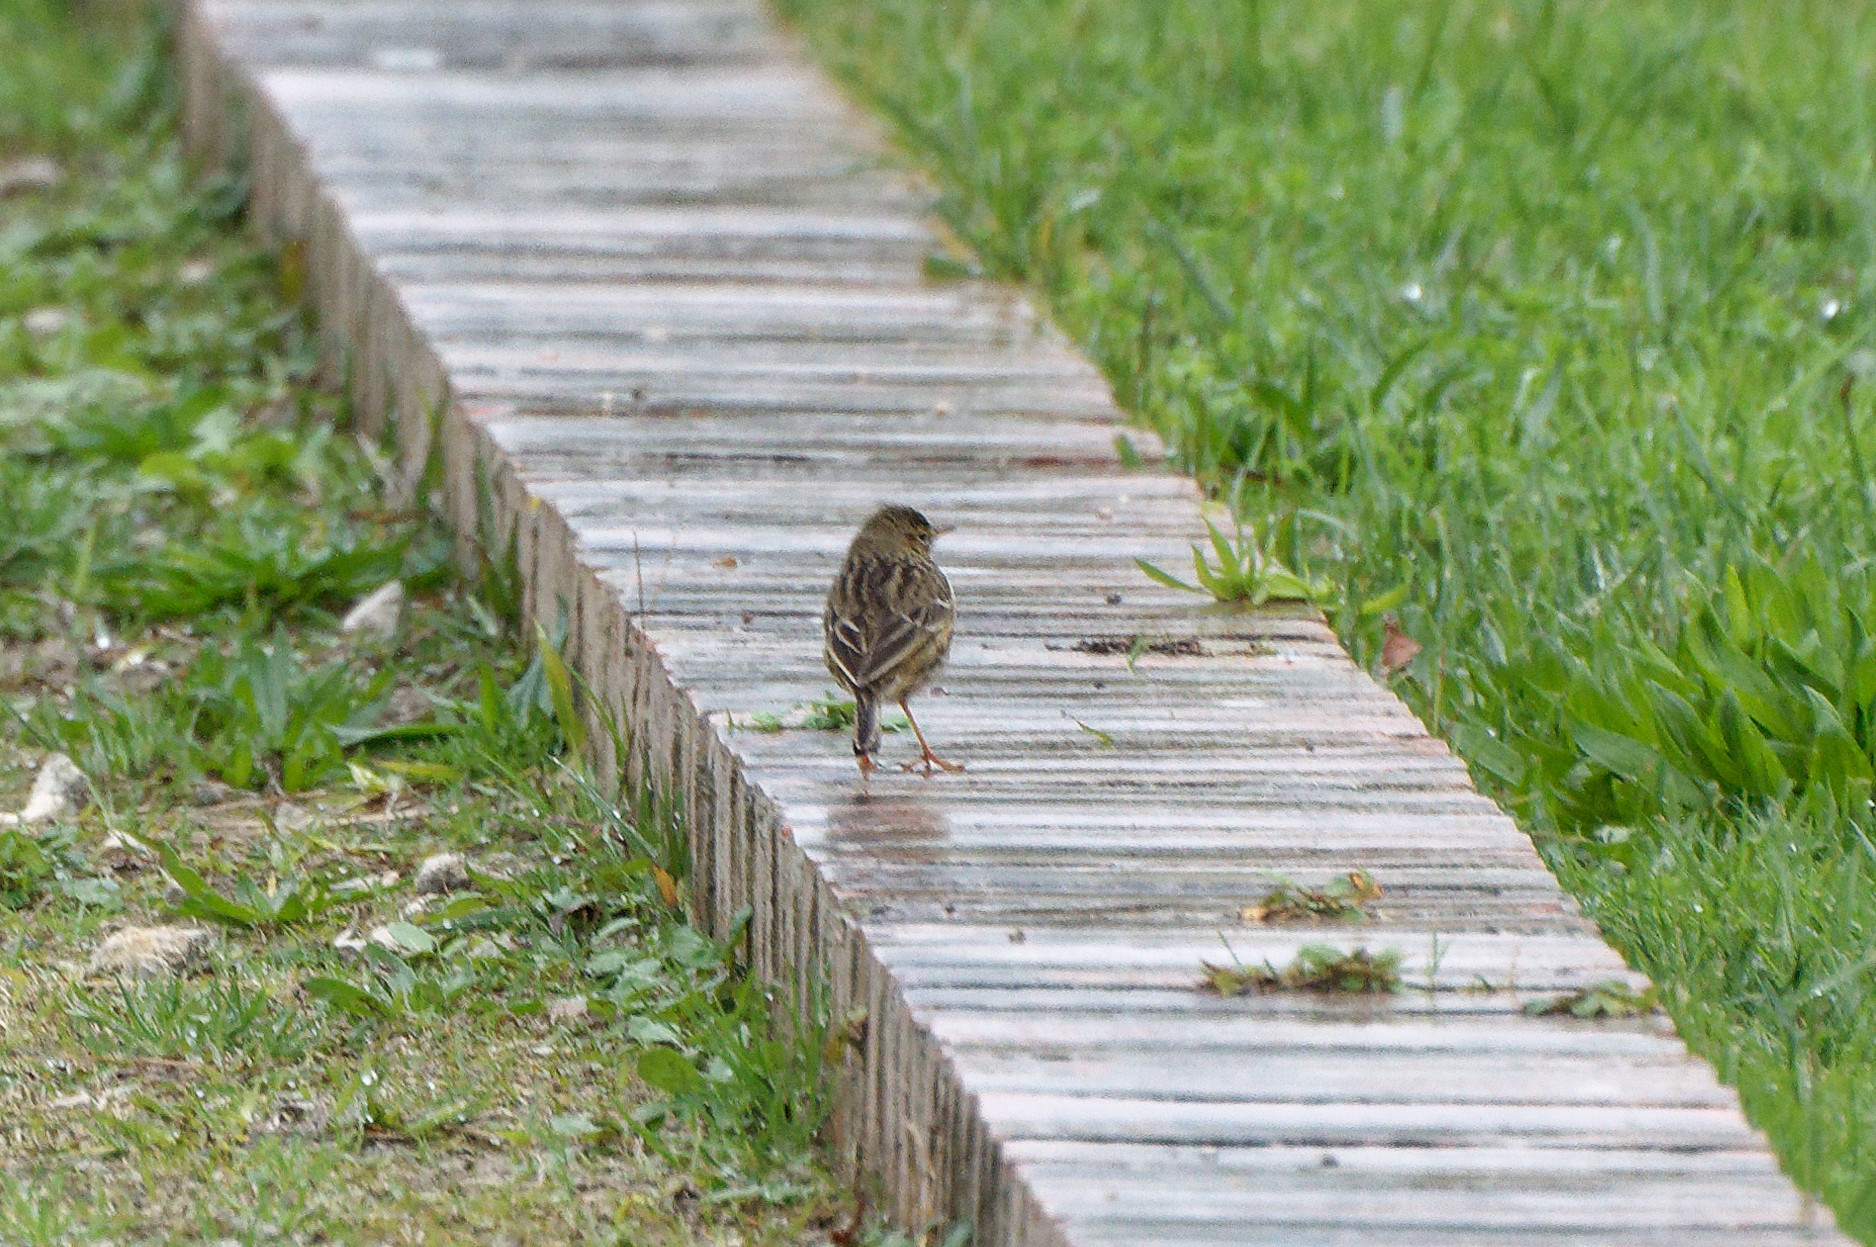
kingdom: Animalia
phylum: Chordata
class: Aves
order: Passeriformes
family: Motacillidae
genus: Anthus
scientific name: Anthus pratensis
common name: Meadow pipit
